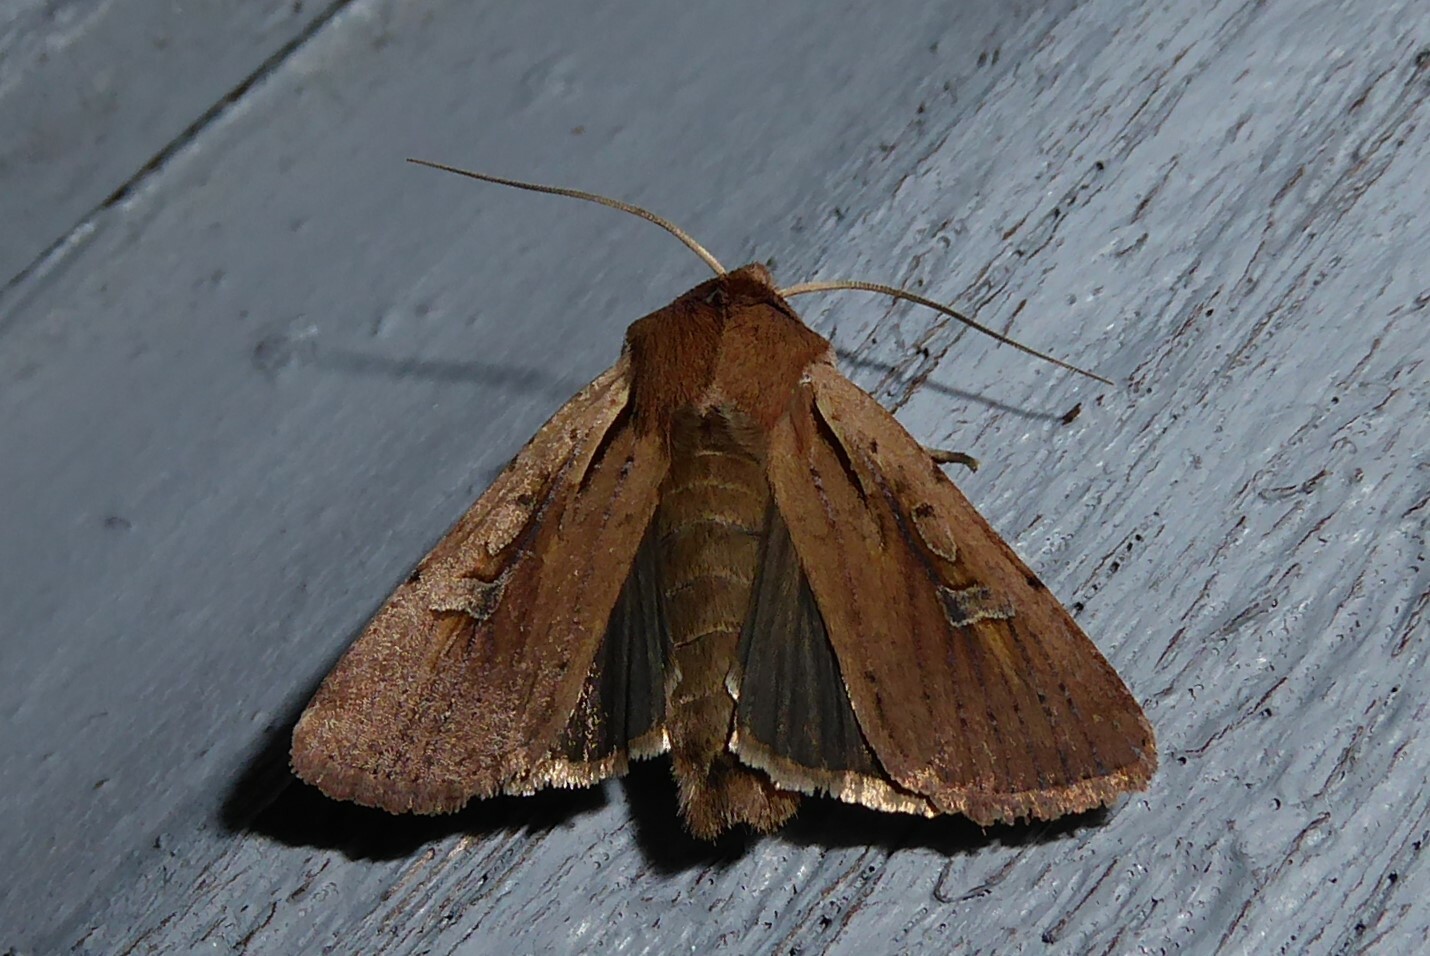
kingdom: Animalia
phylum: Arthropoda
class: Insecta
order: Lepidoptera
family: Noctuidae
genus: Ichneutica
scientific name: Ichneutica atristriga
